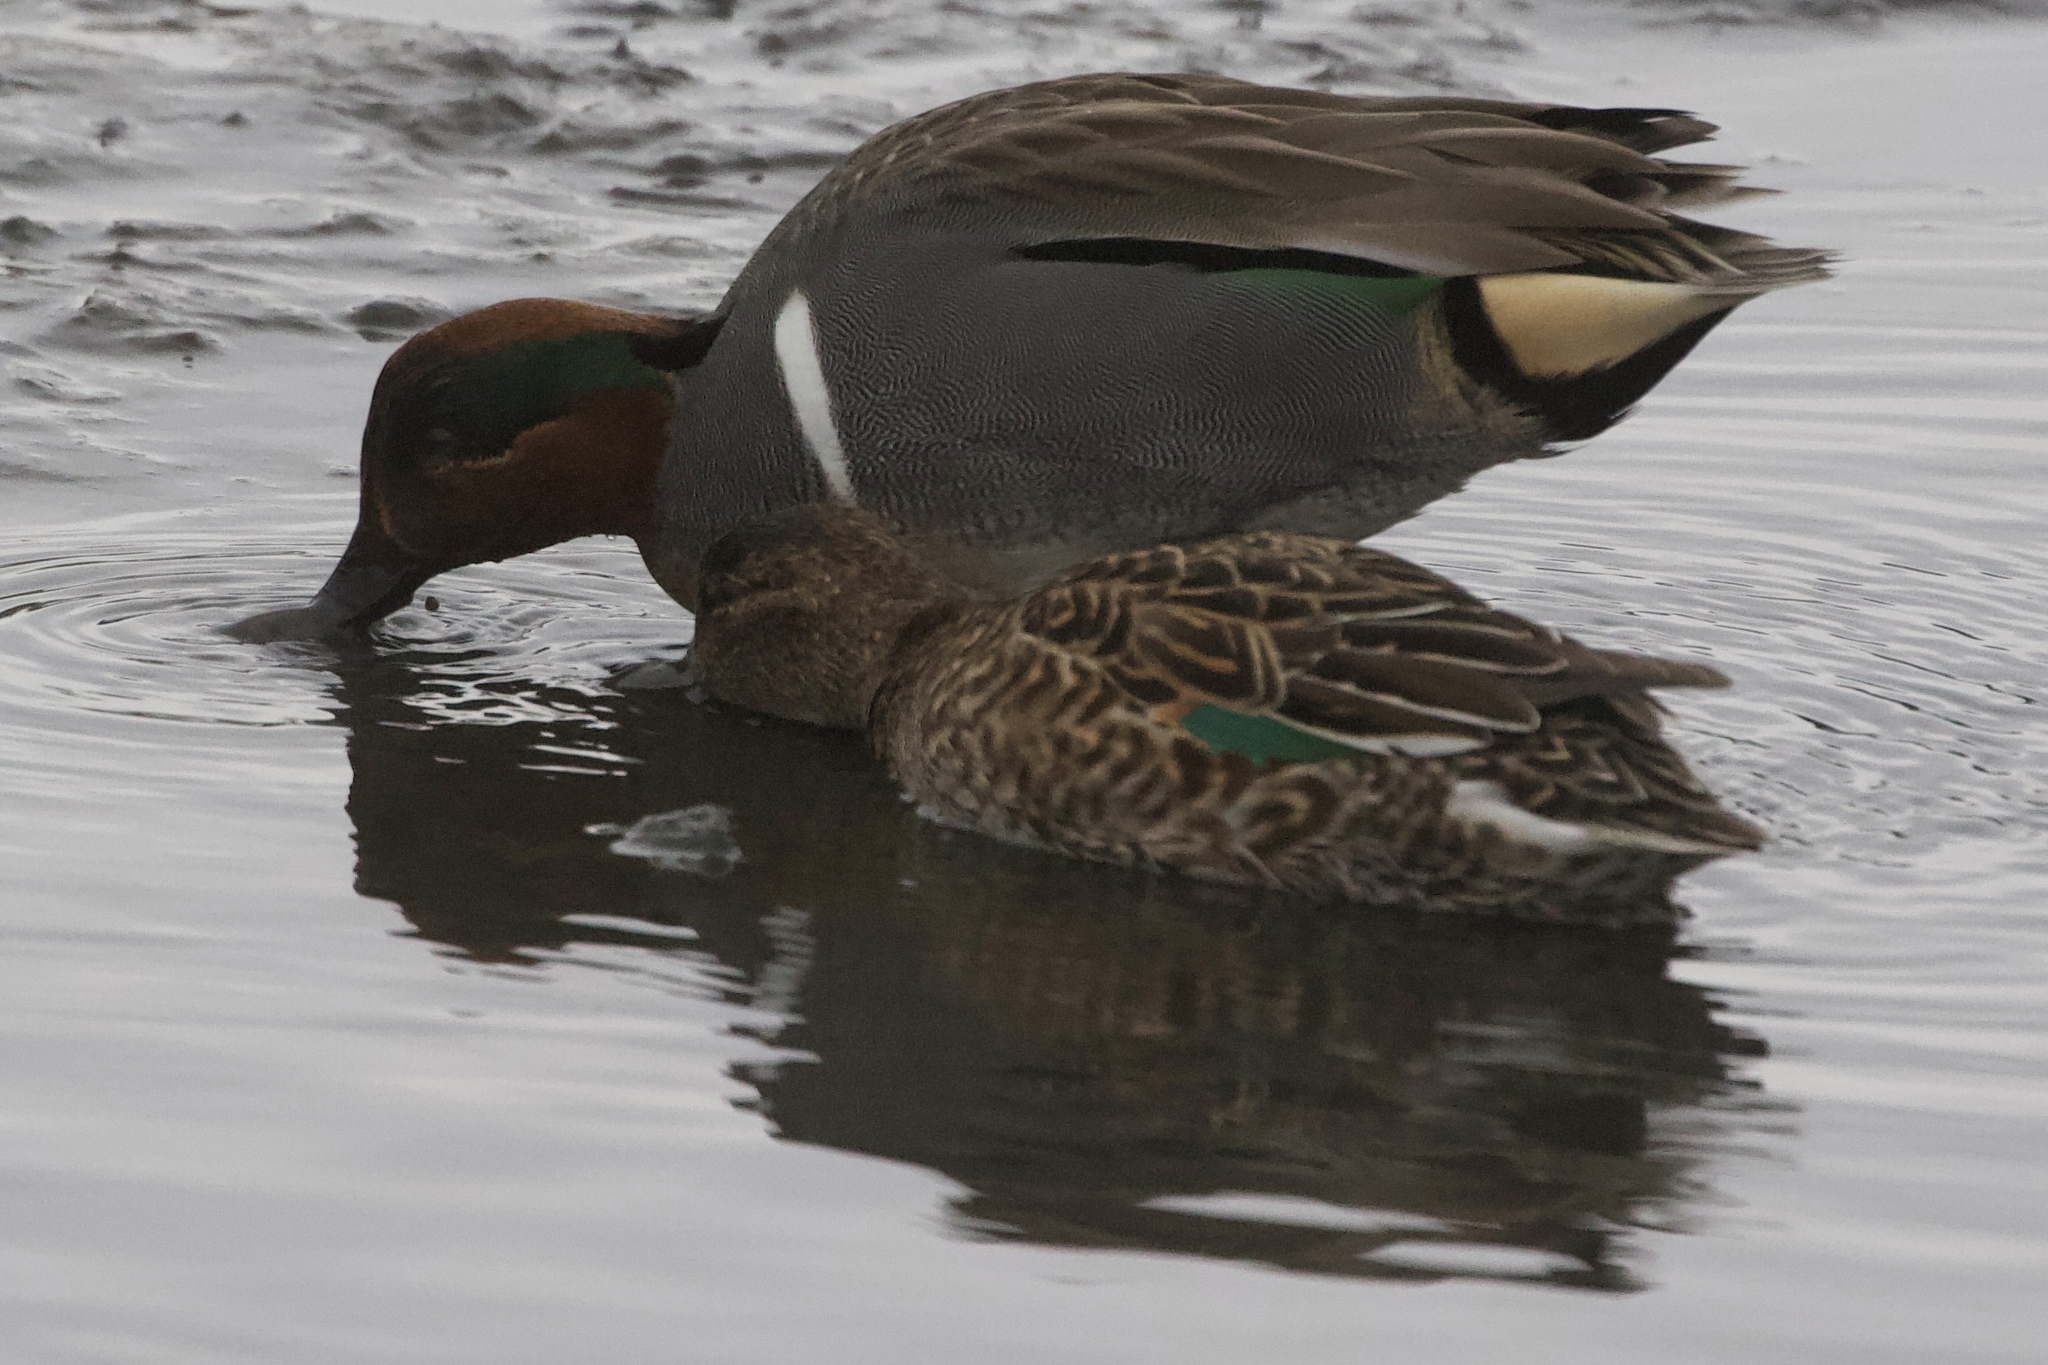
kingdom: Animalia
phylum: Chordata
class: Aves
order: Anseriformes
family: Anatidae
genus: Anas
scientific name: Anas crecca
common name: Eurasian teal
